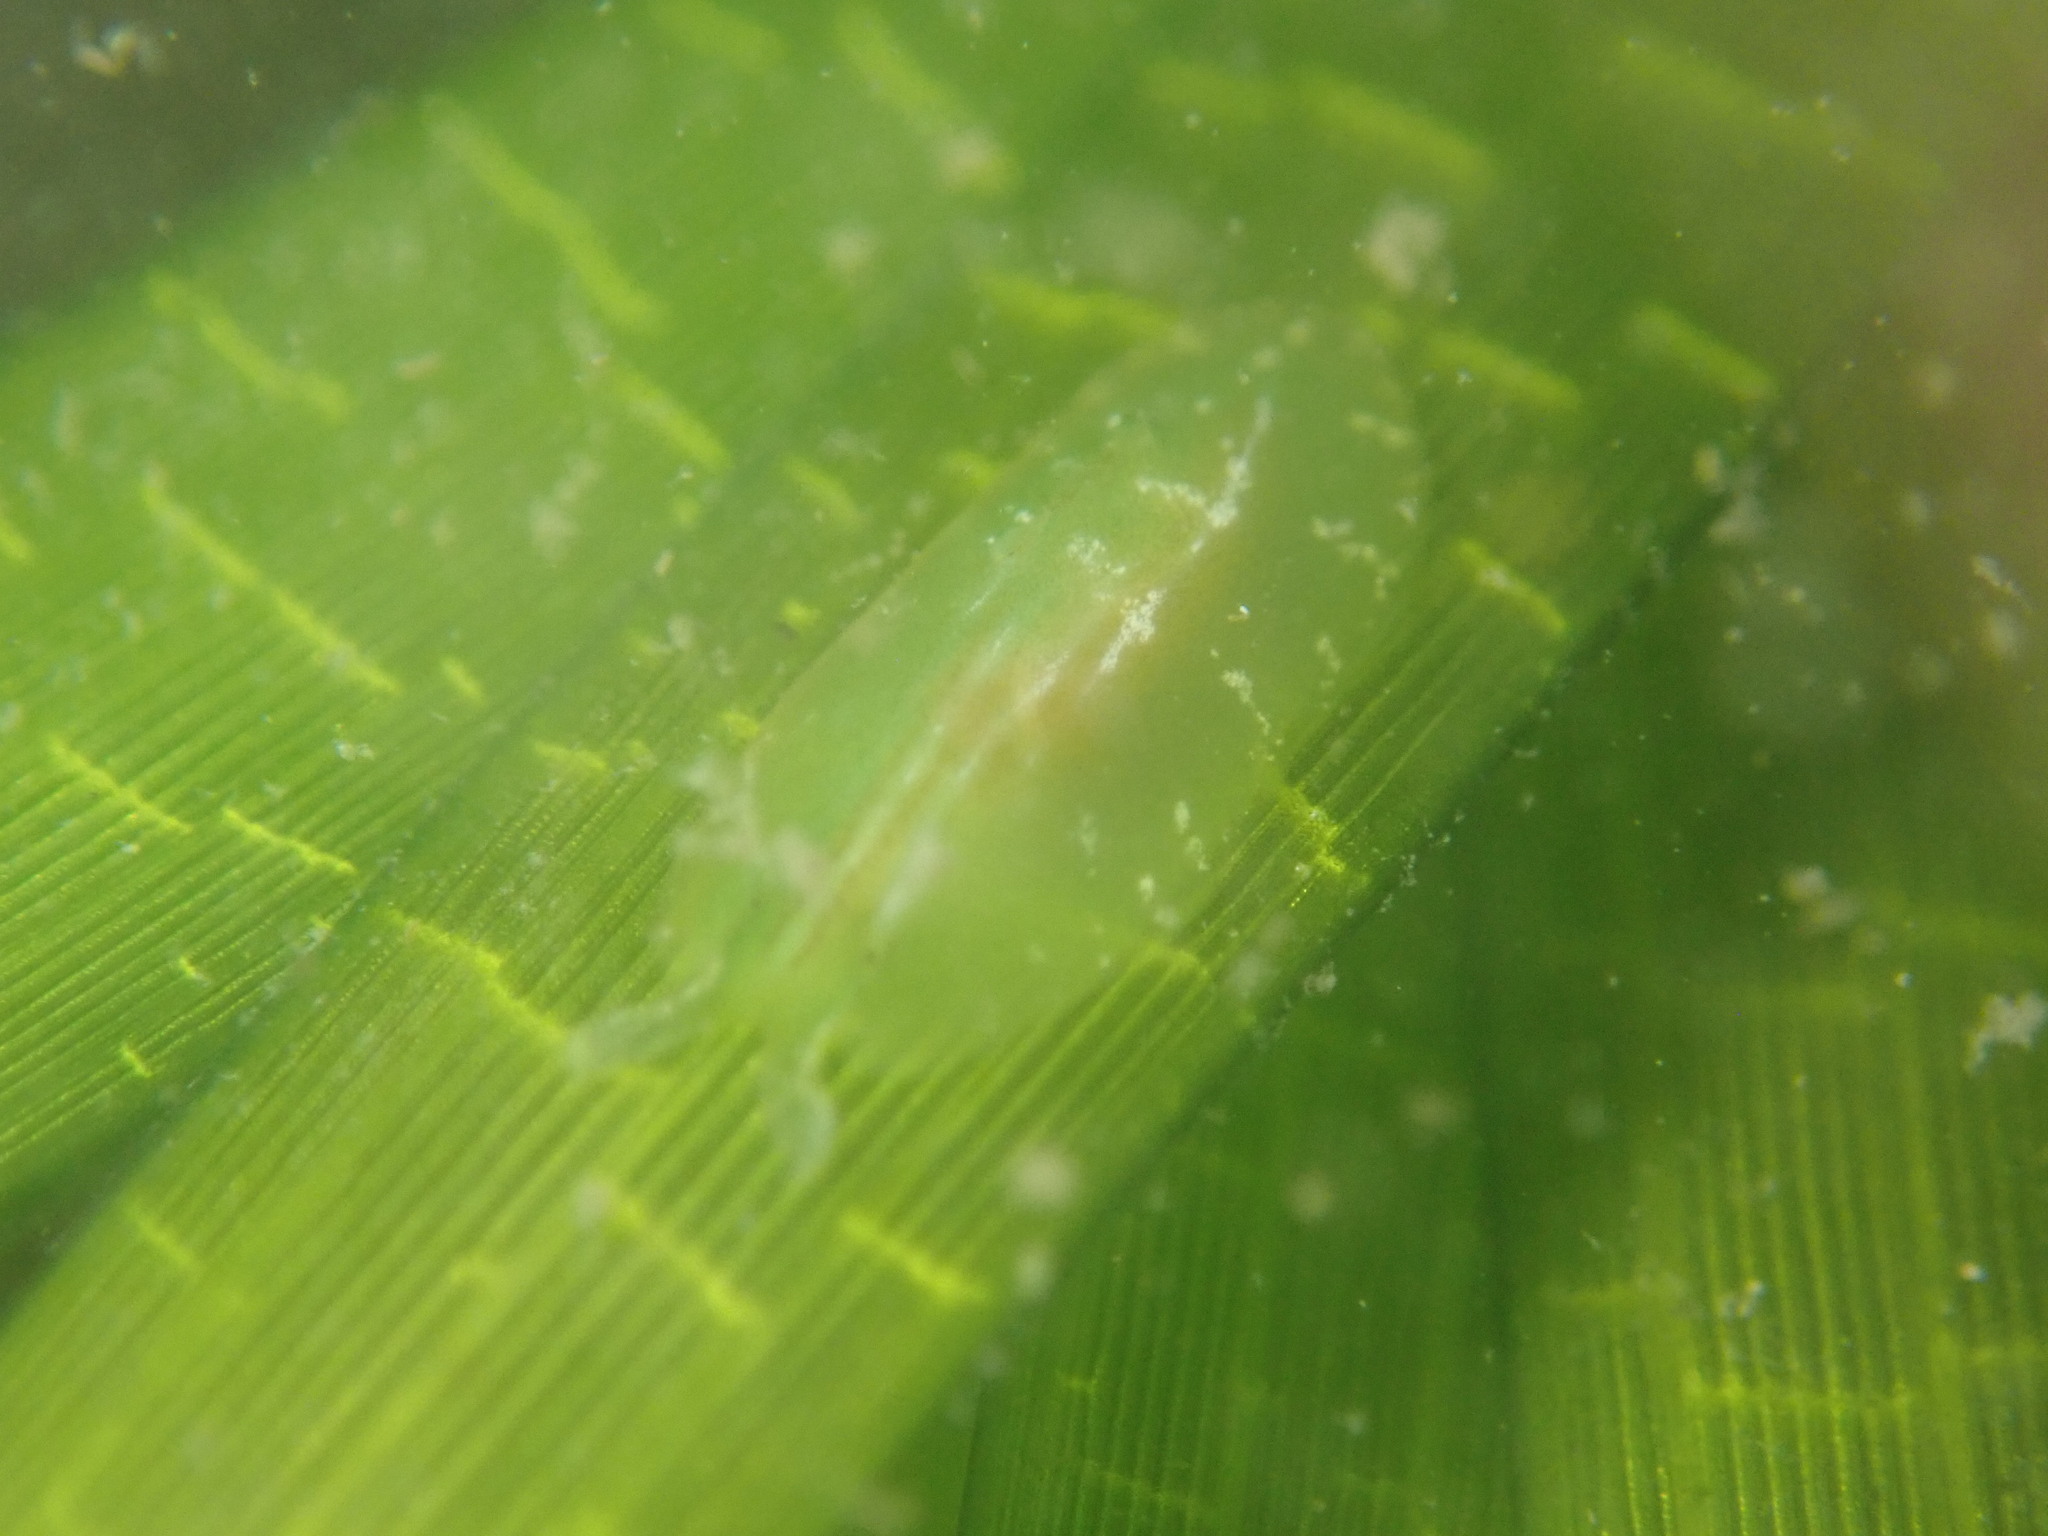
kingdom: Animalia
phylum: Mollusca
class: Gastropoda
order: Aplysiida
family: Aplysiidae
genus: Phyllaplysia
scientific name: Phyllaplysia taylori
